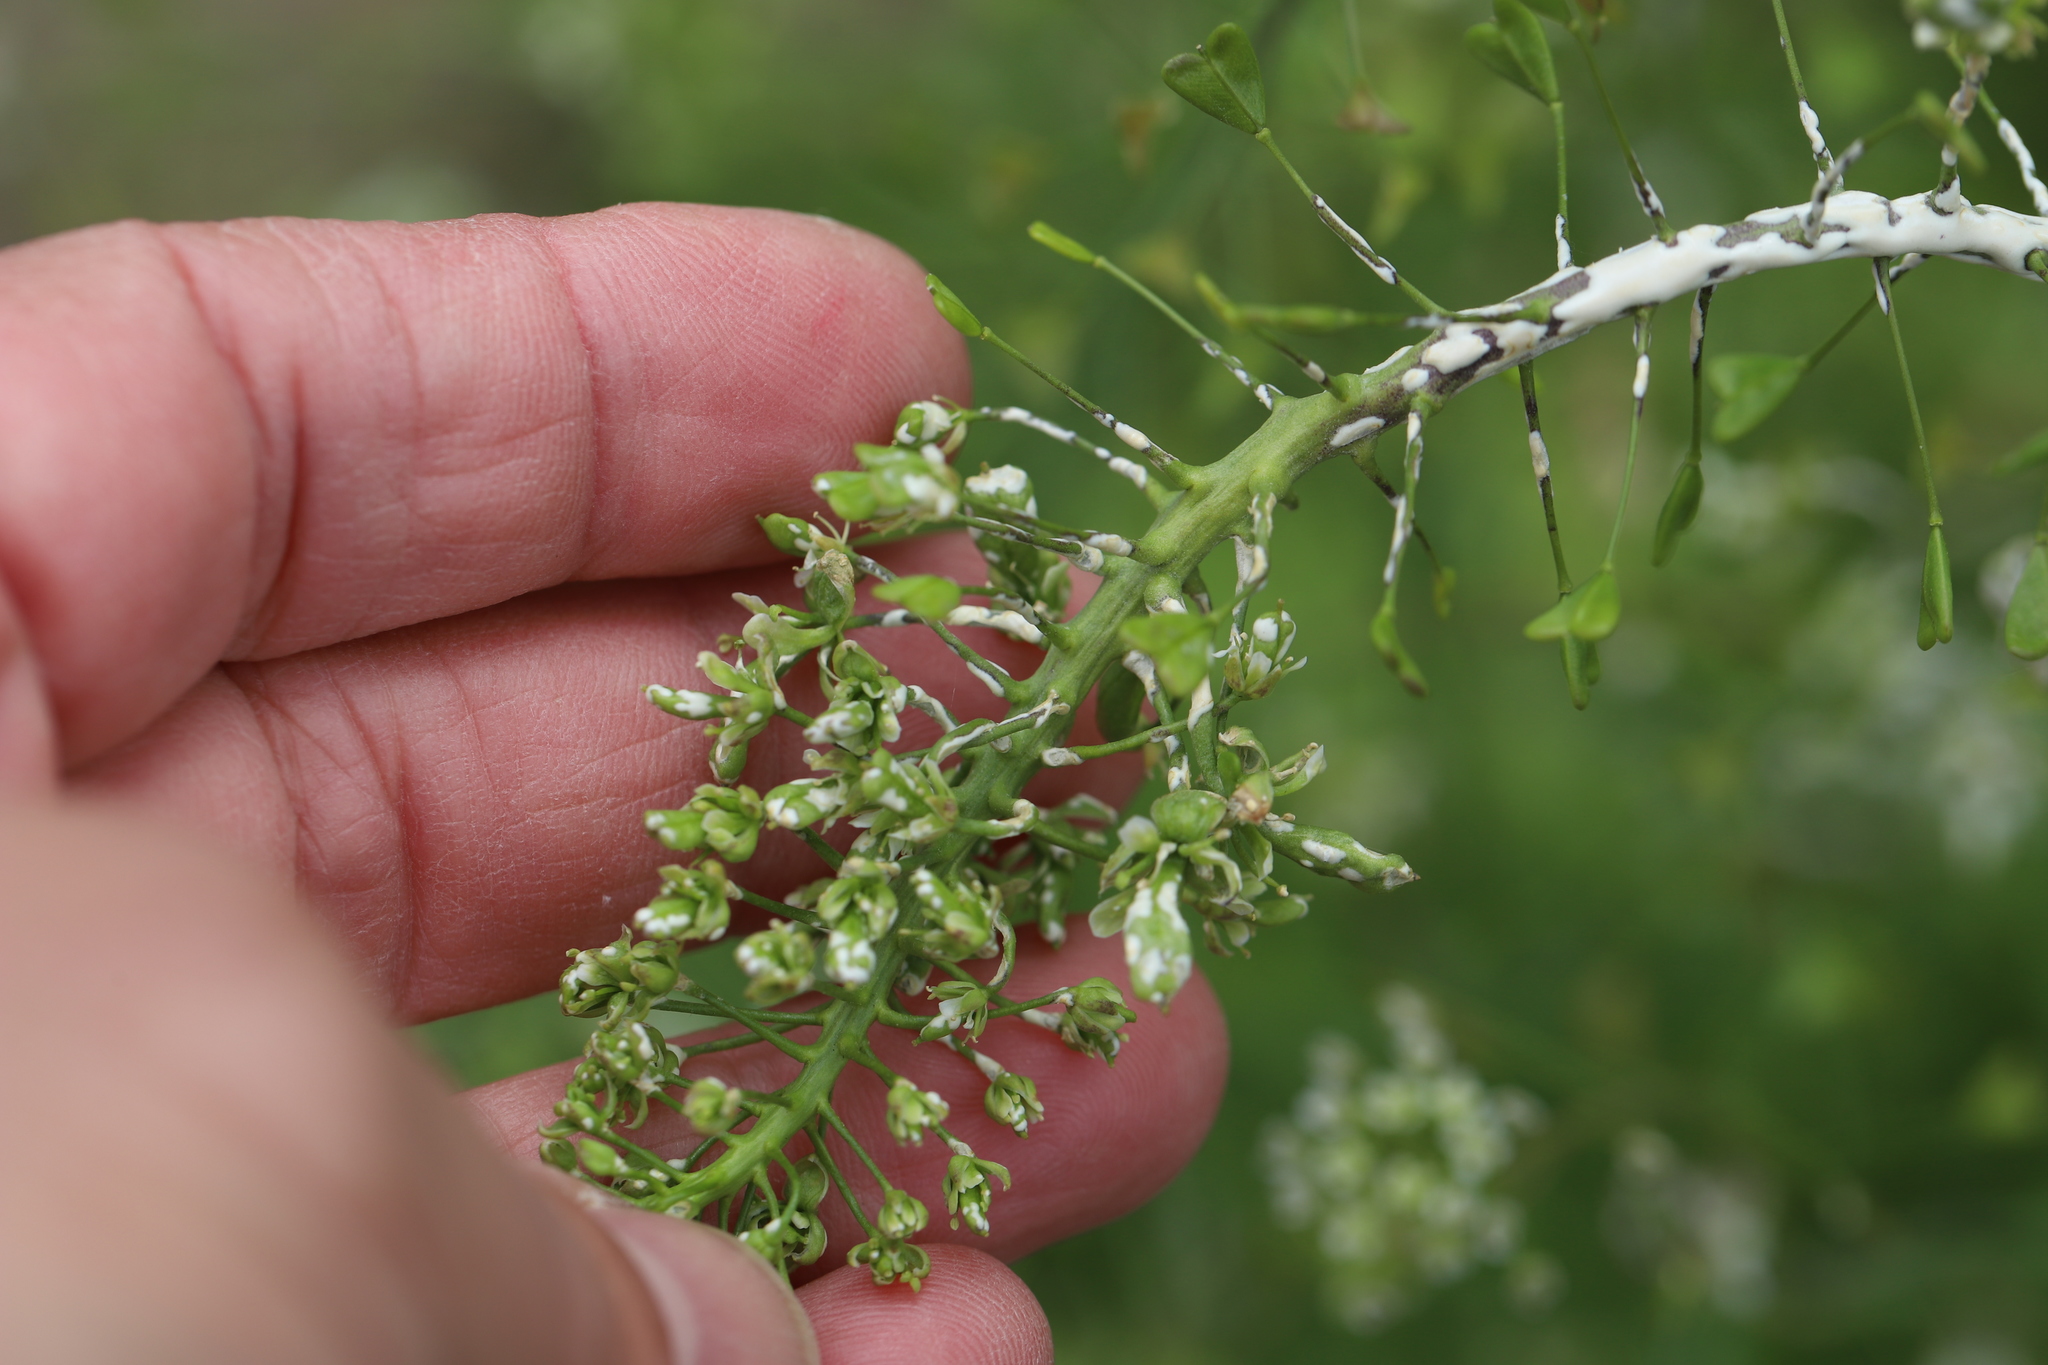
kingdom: Plantae
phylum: Tracheophyta
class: Magnoliopsida
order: Brassicales
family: Brassicaceae
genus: Capsella
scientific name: Capsella bursa-pastoris
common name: Shepherd's purse
